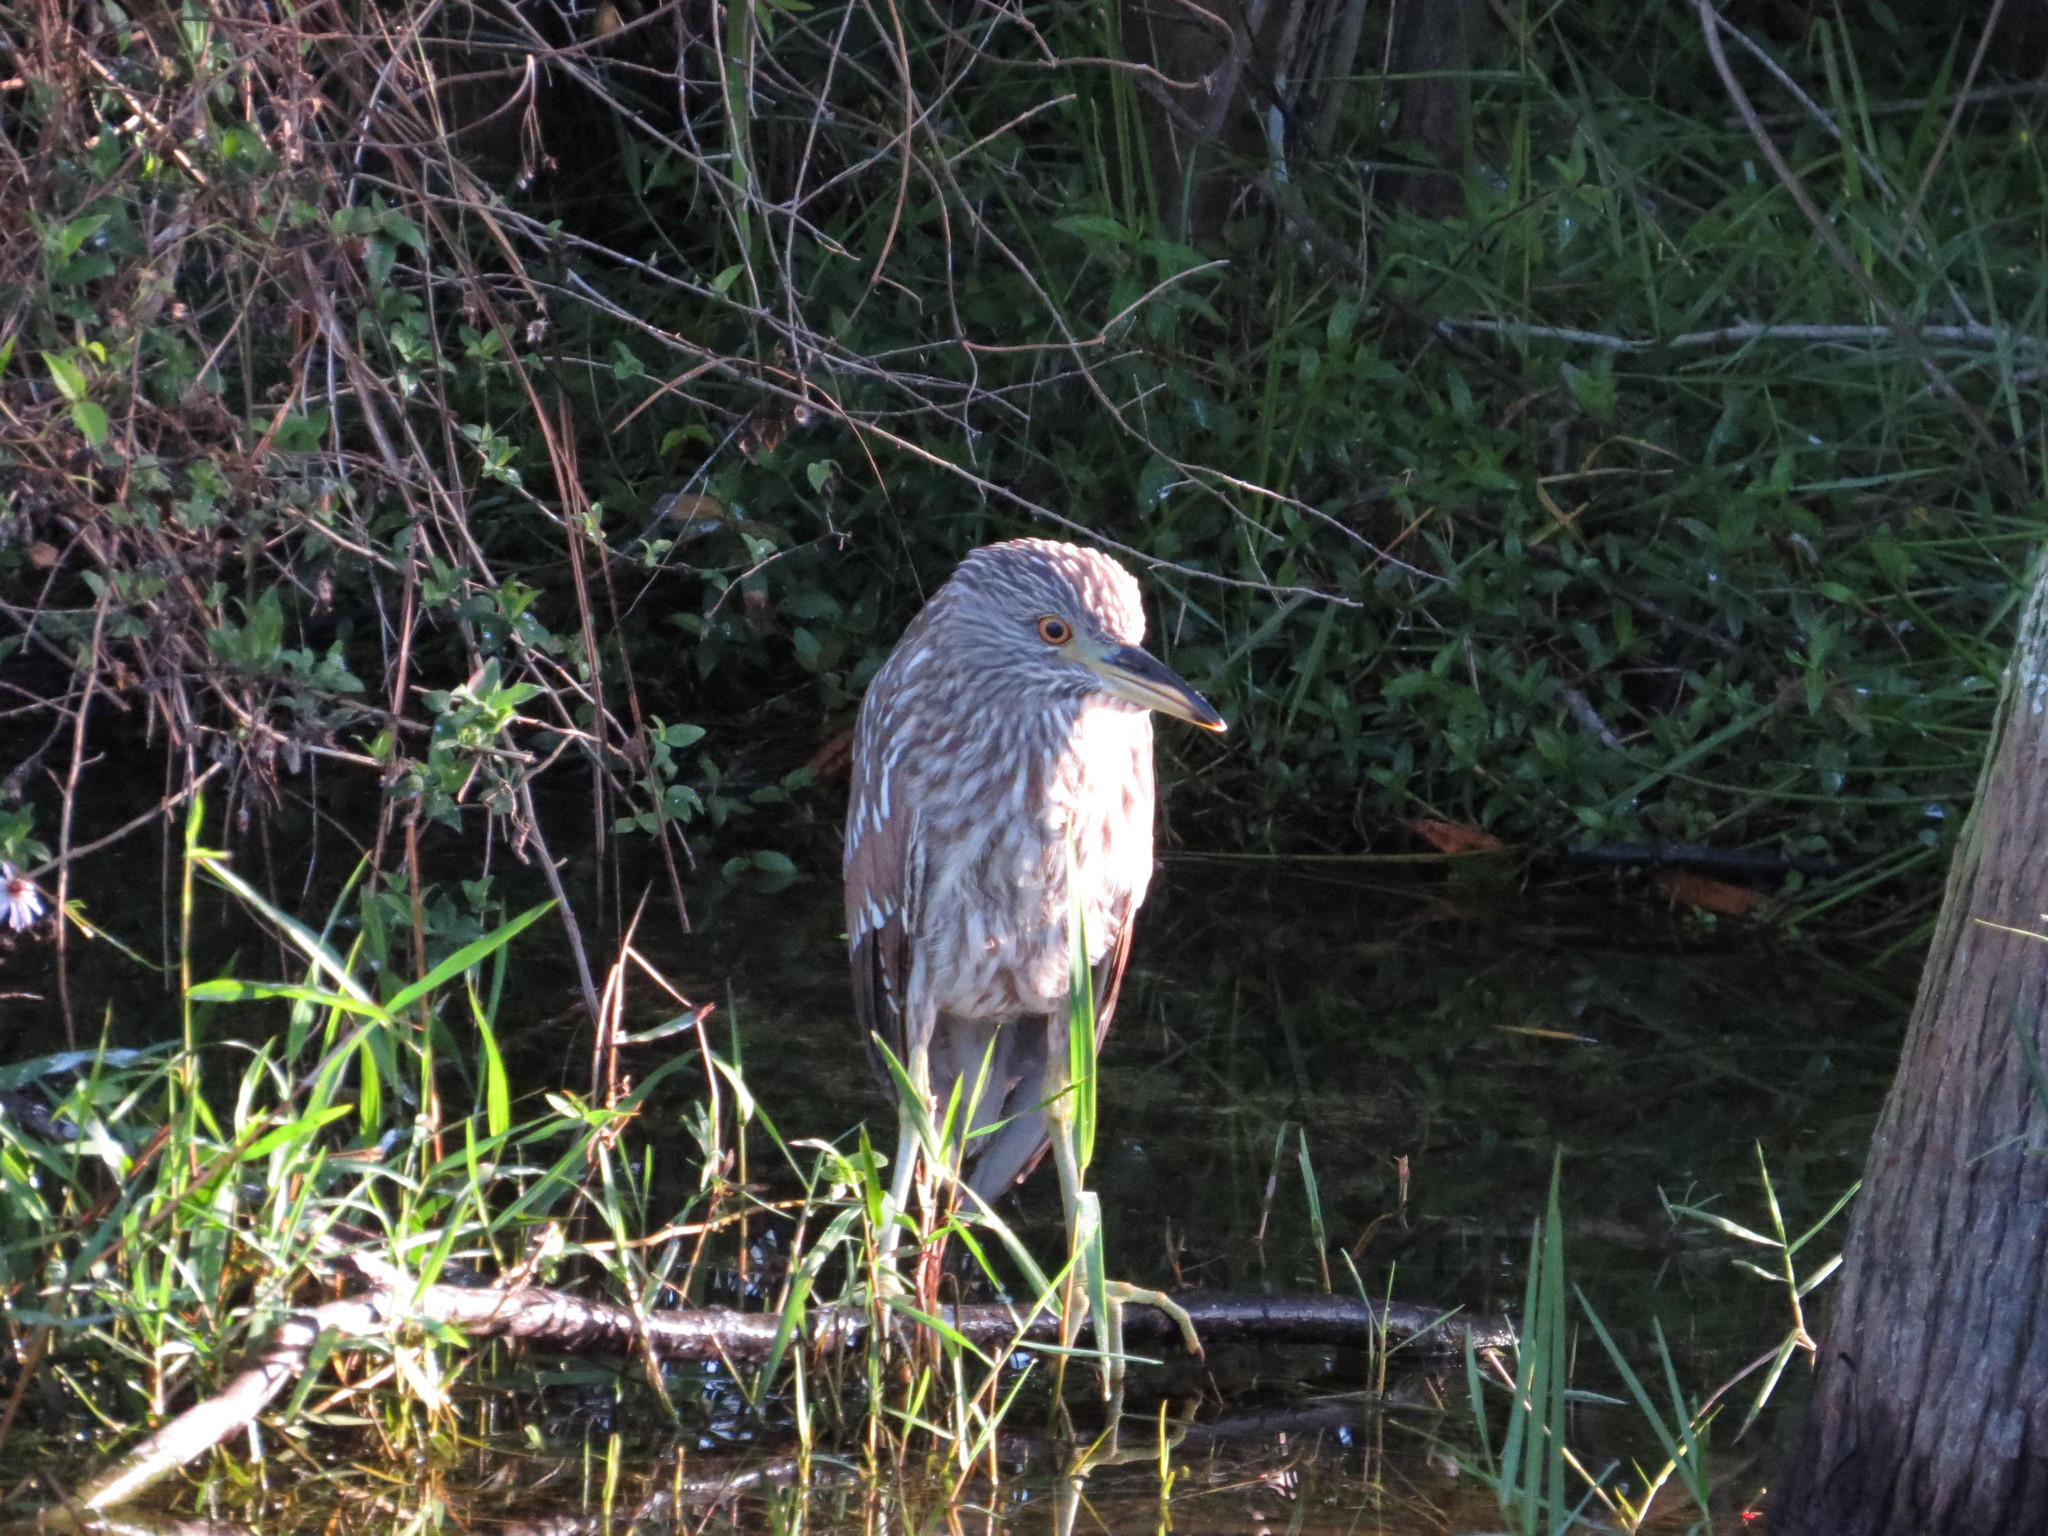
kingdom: Animalia
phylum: Chordata
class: Aves
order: Pelecaniformes
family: Ardeidae
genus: Nycticorax
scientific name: Nycticorax nycticorax
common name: Black-crowned night heron
